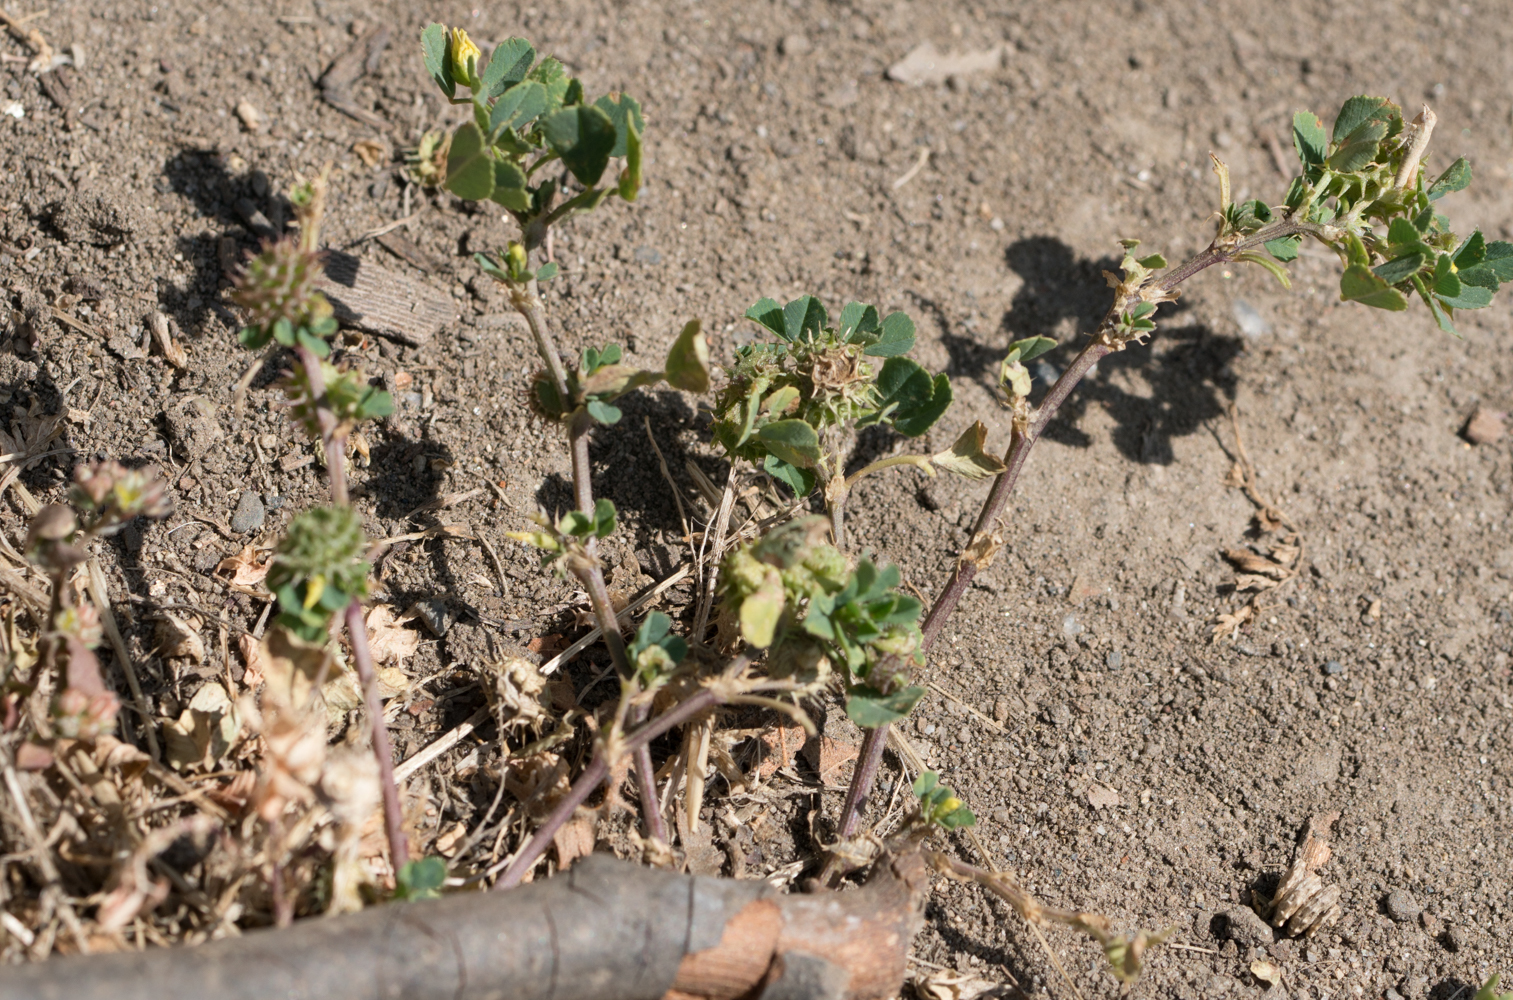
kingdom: Plantae
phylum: Tracheophyta
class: Magnoliopsida
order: Fabales
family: Fabaceae
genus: Medicago
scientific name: Medicago polymorpha
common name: Burclover
